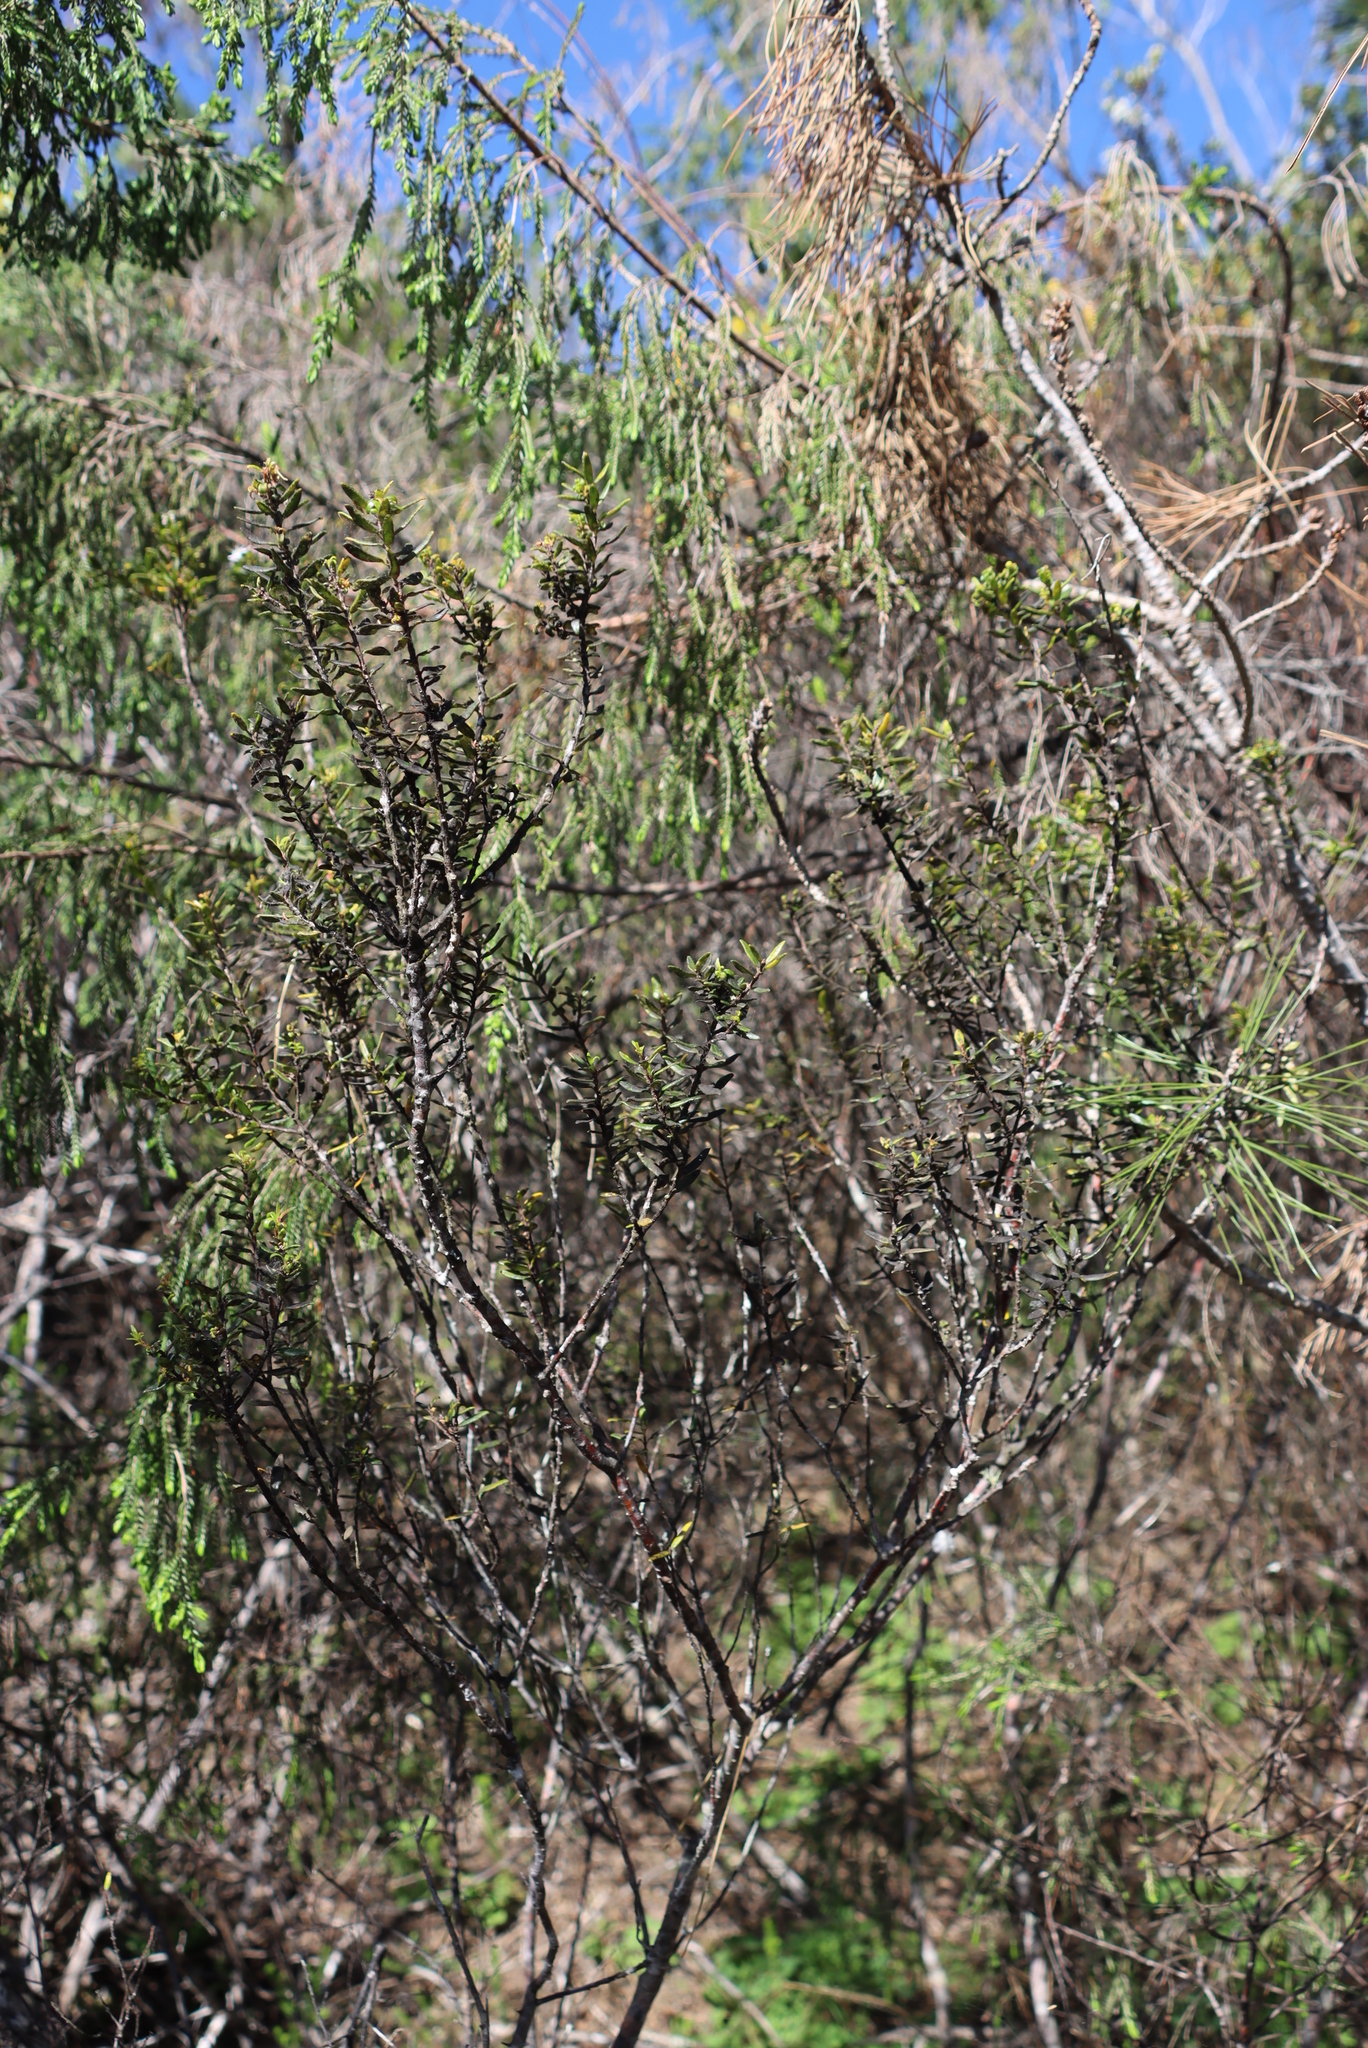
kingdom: Plantae
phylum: Tracheophyta
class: Magnoliopsida
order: Sapindales
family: Rutaceae
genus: Agathosma
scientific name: Agathosma ovata
